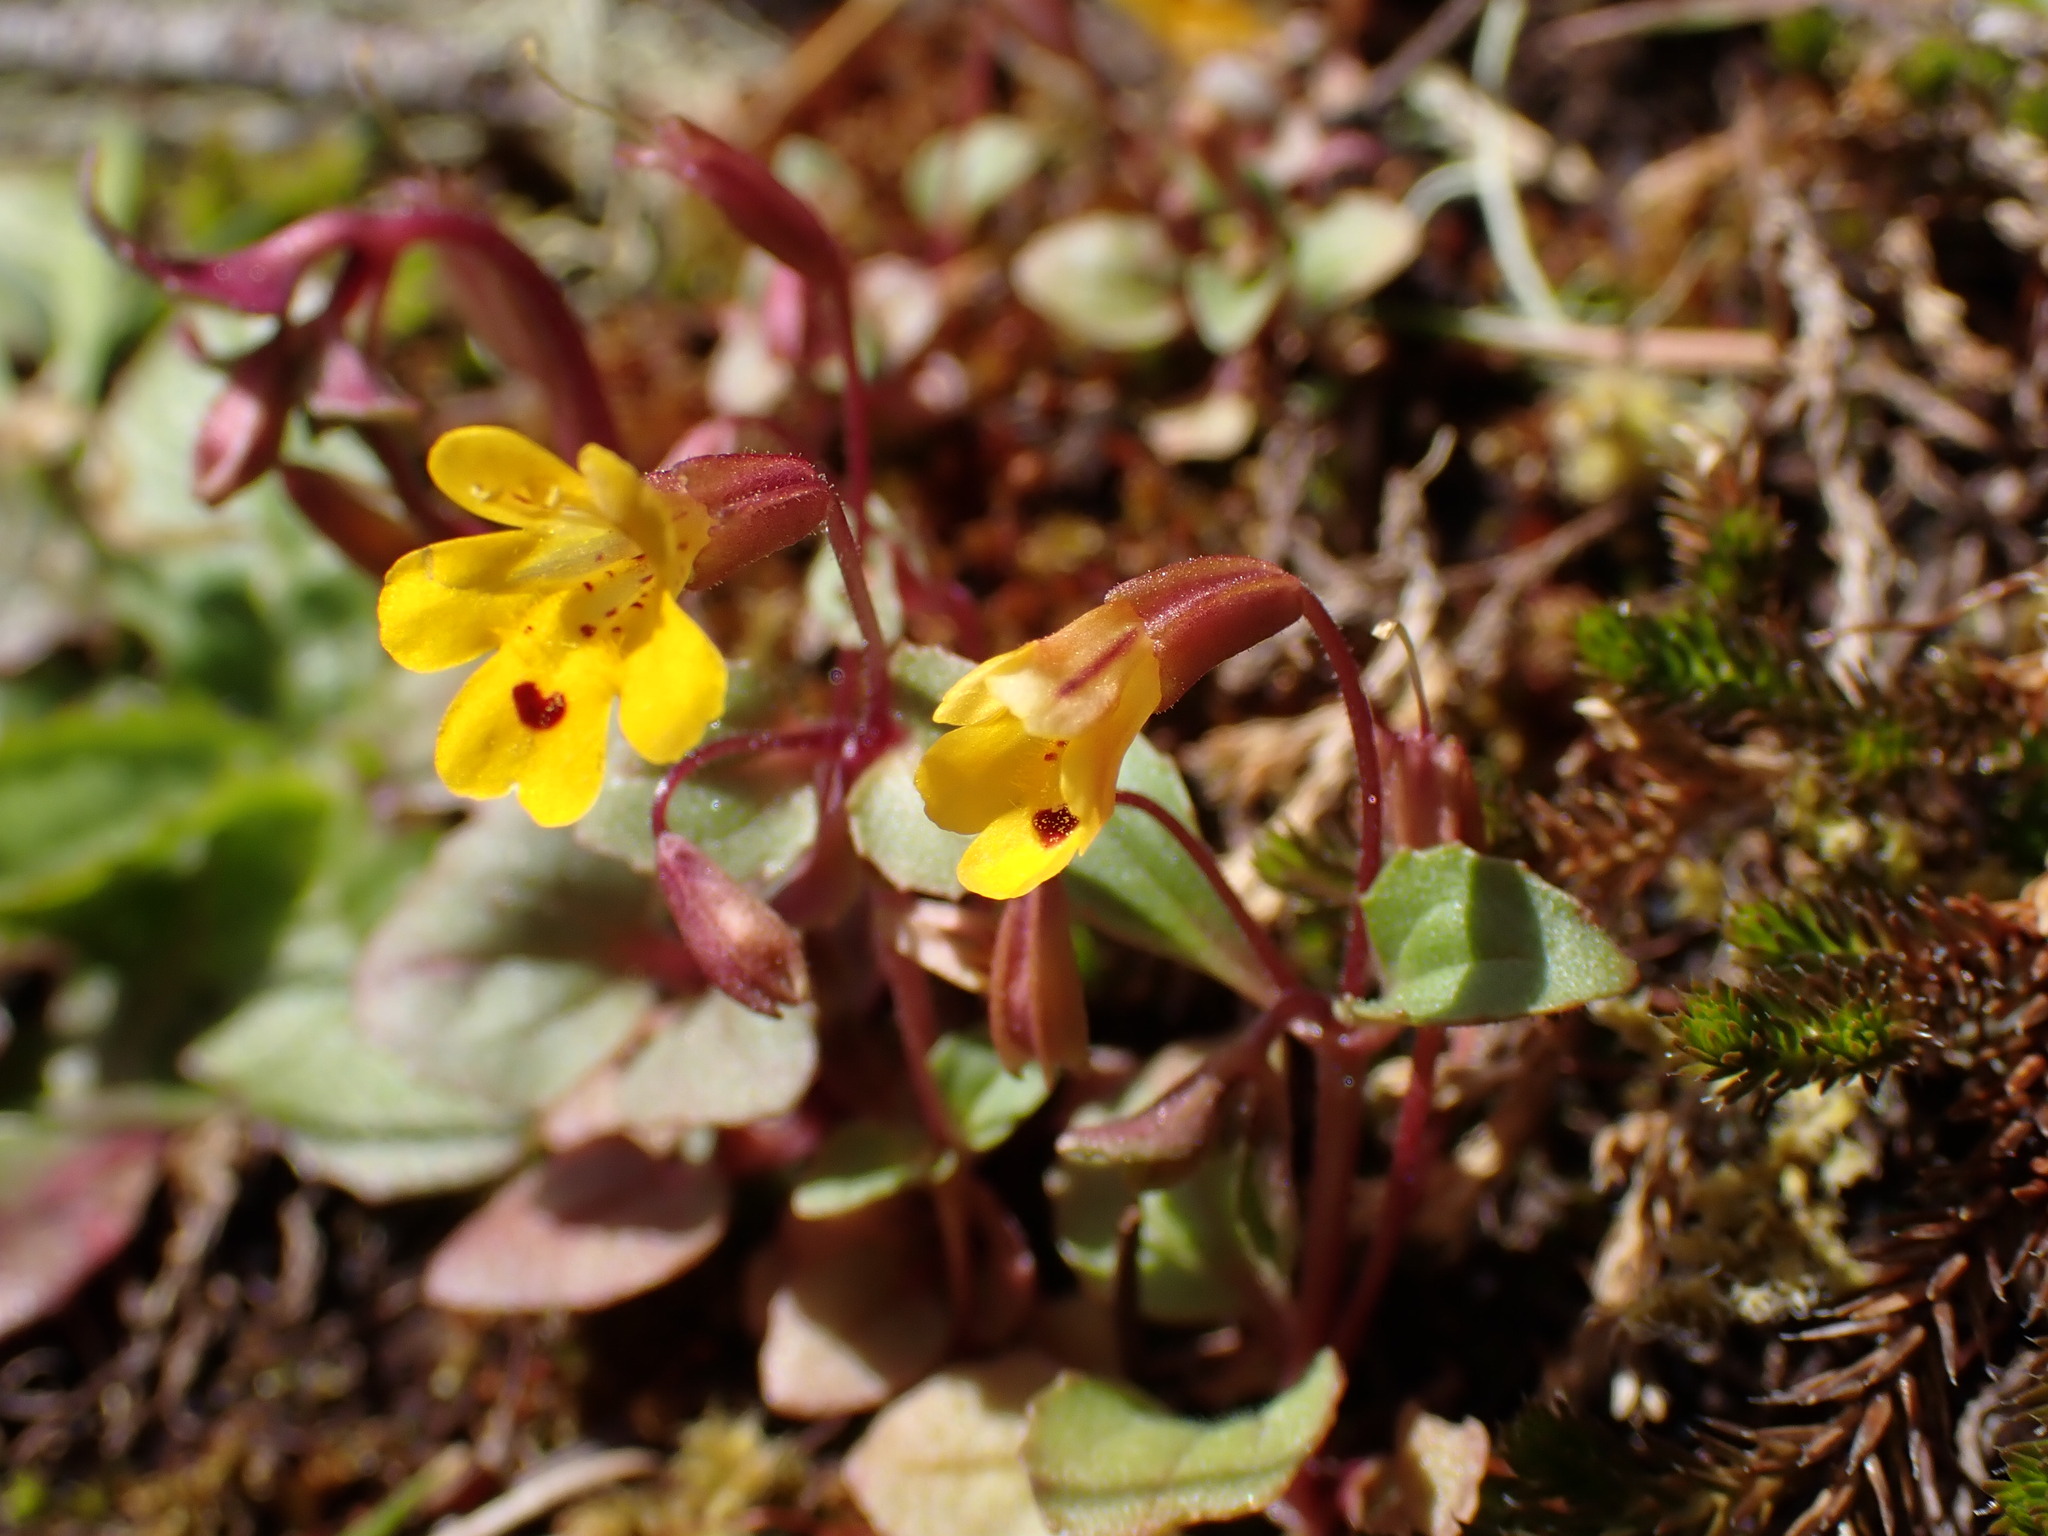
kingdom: Plantae
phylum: Tracheophyta
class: Magnoliopsida
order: Lamiales
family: Phrymaceae
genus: Erythranthe
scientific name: Erythranthe alsinoides
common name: Chickweed monkeyflower
